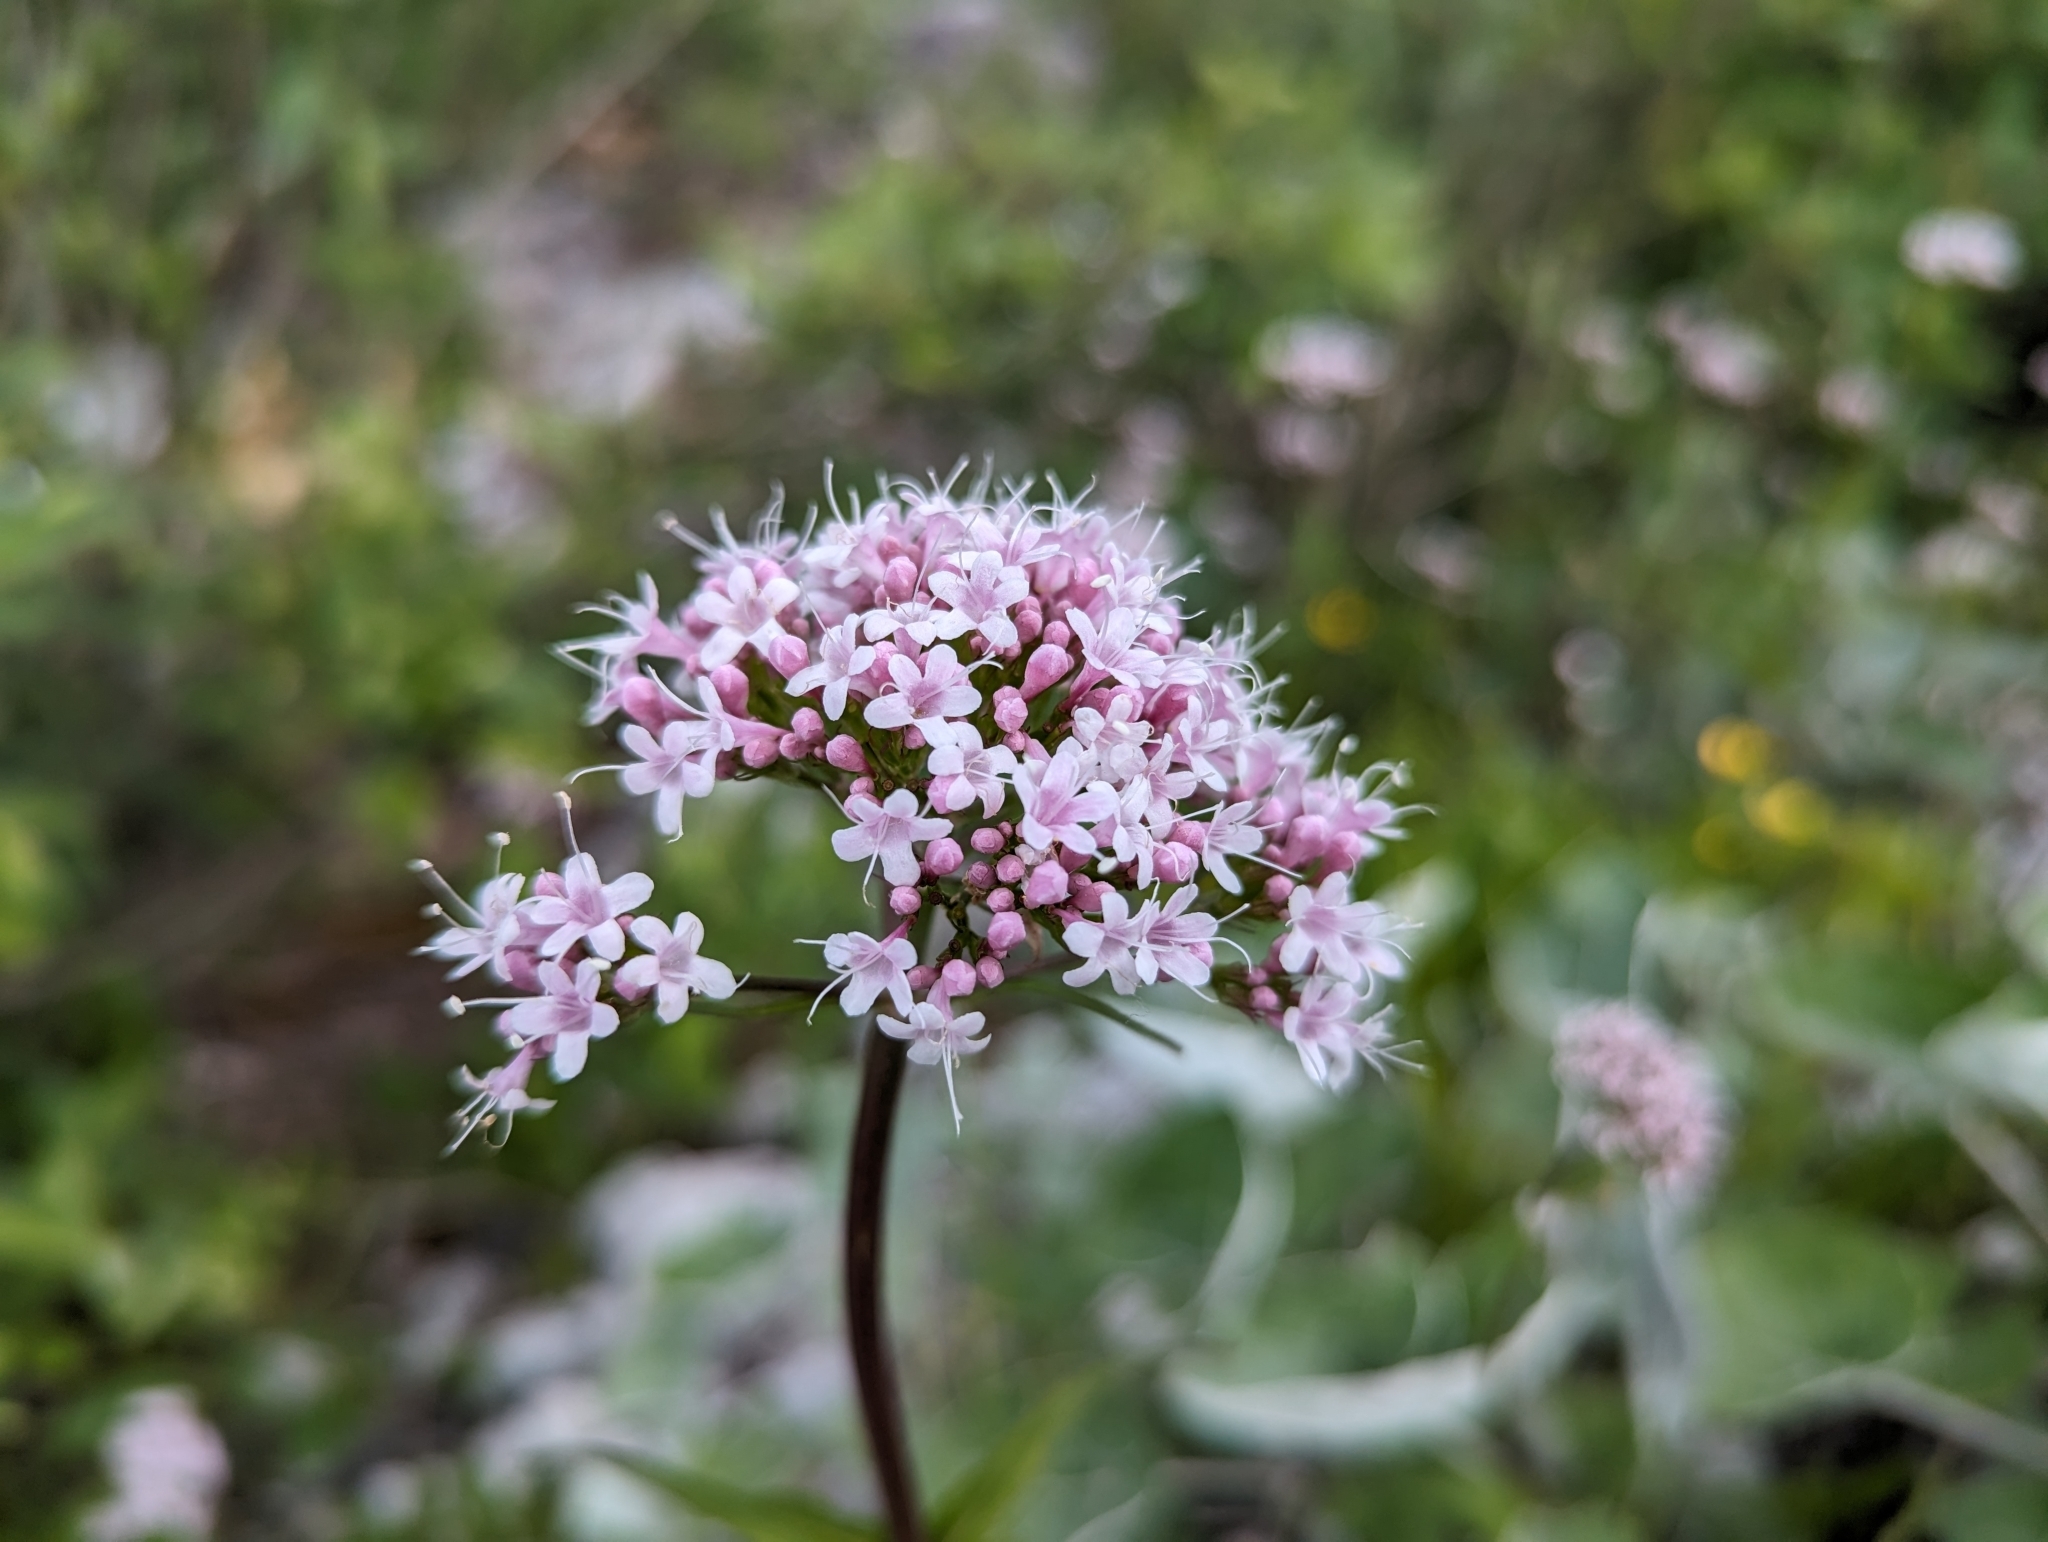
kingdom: Plantae
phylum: Tracheophyta
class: Magnoliopsida
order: Dipsacales
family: Caprifoliaceae
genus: Valeriana
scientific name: Valeriana montana
